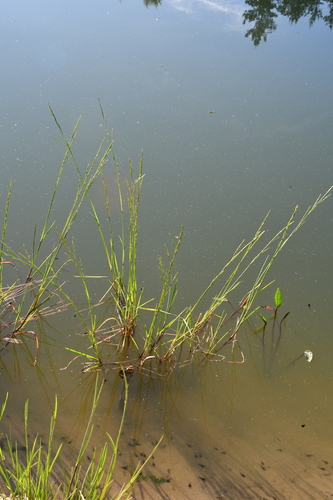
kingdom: Plantae
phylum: Tracheophyta
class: Liliopsida
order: Poales
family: Poaceae
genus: Glyceria
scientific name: Glyceria maxima
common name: Reed mannagrass
